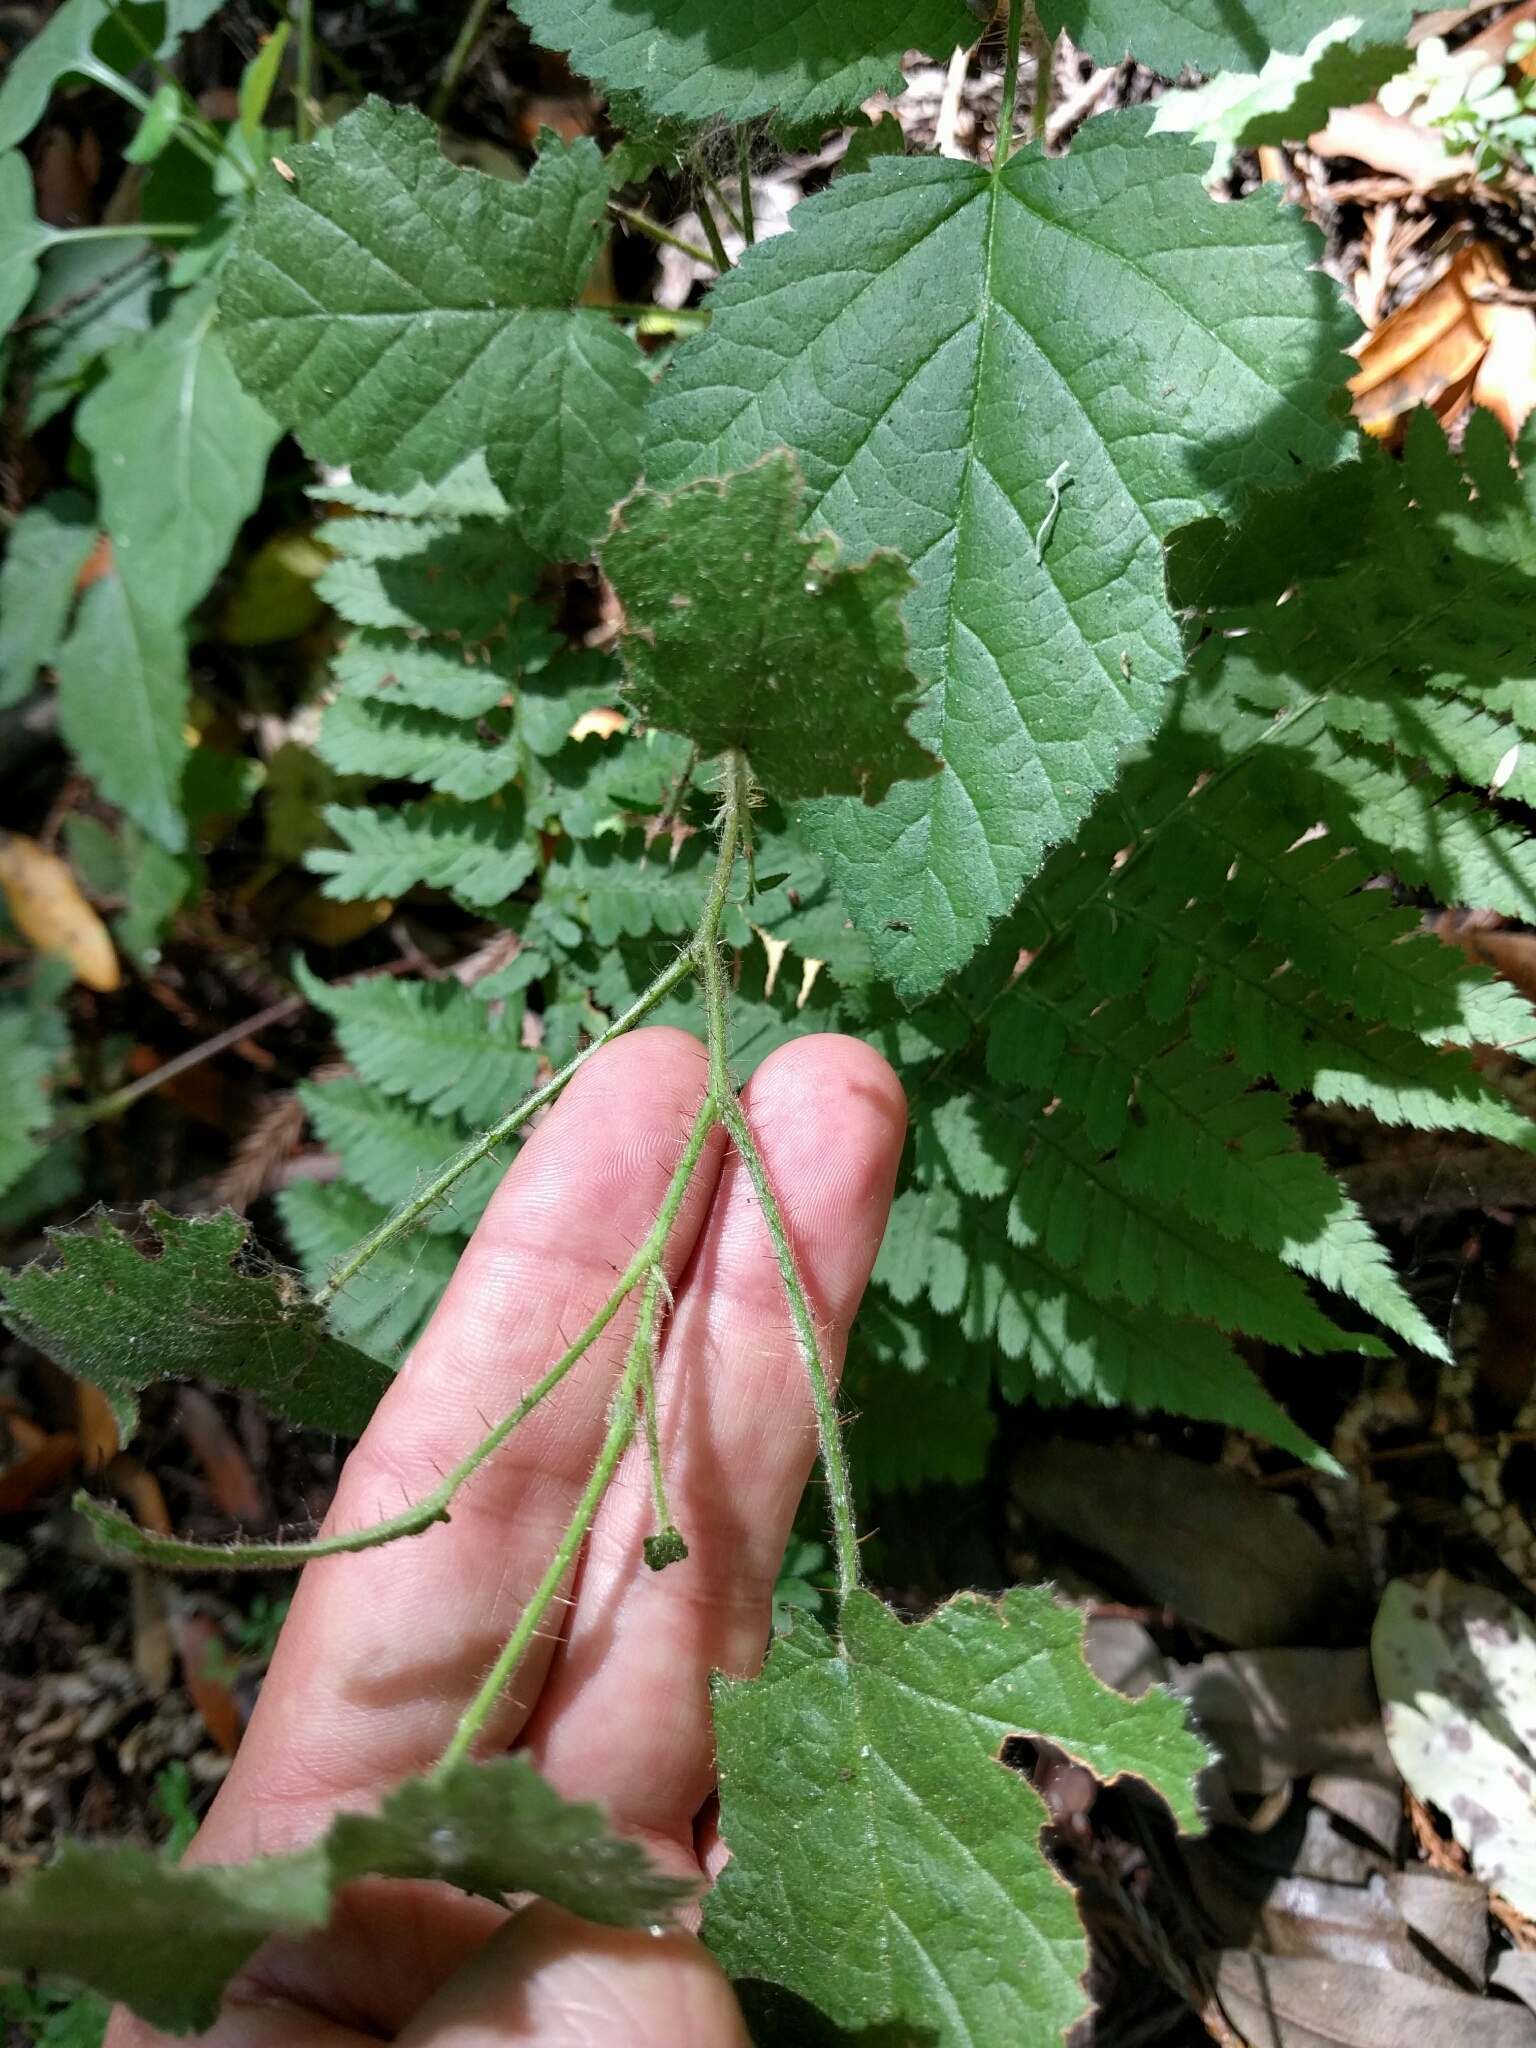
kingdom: Plantae
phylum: Tracheophyta
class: Magnoliopsida
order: Rosales
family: Rosaceae
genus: Rubus
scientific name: Rubus ursinus
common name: Pacific blackberry
